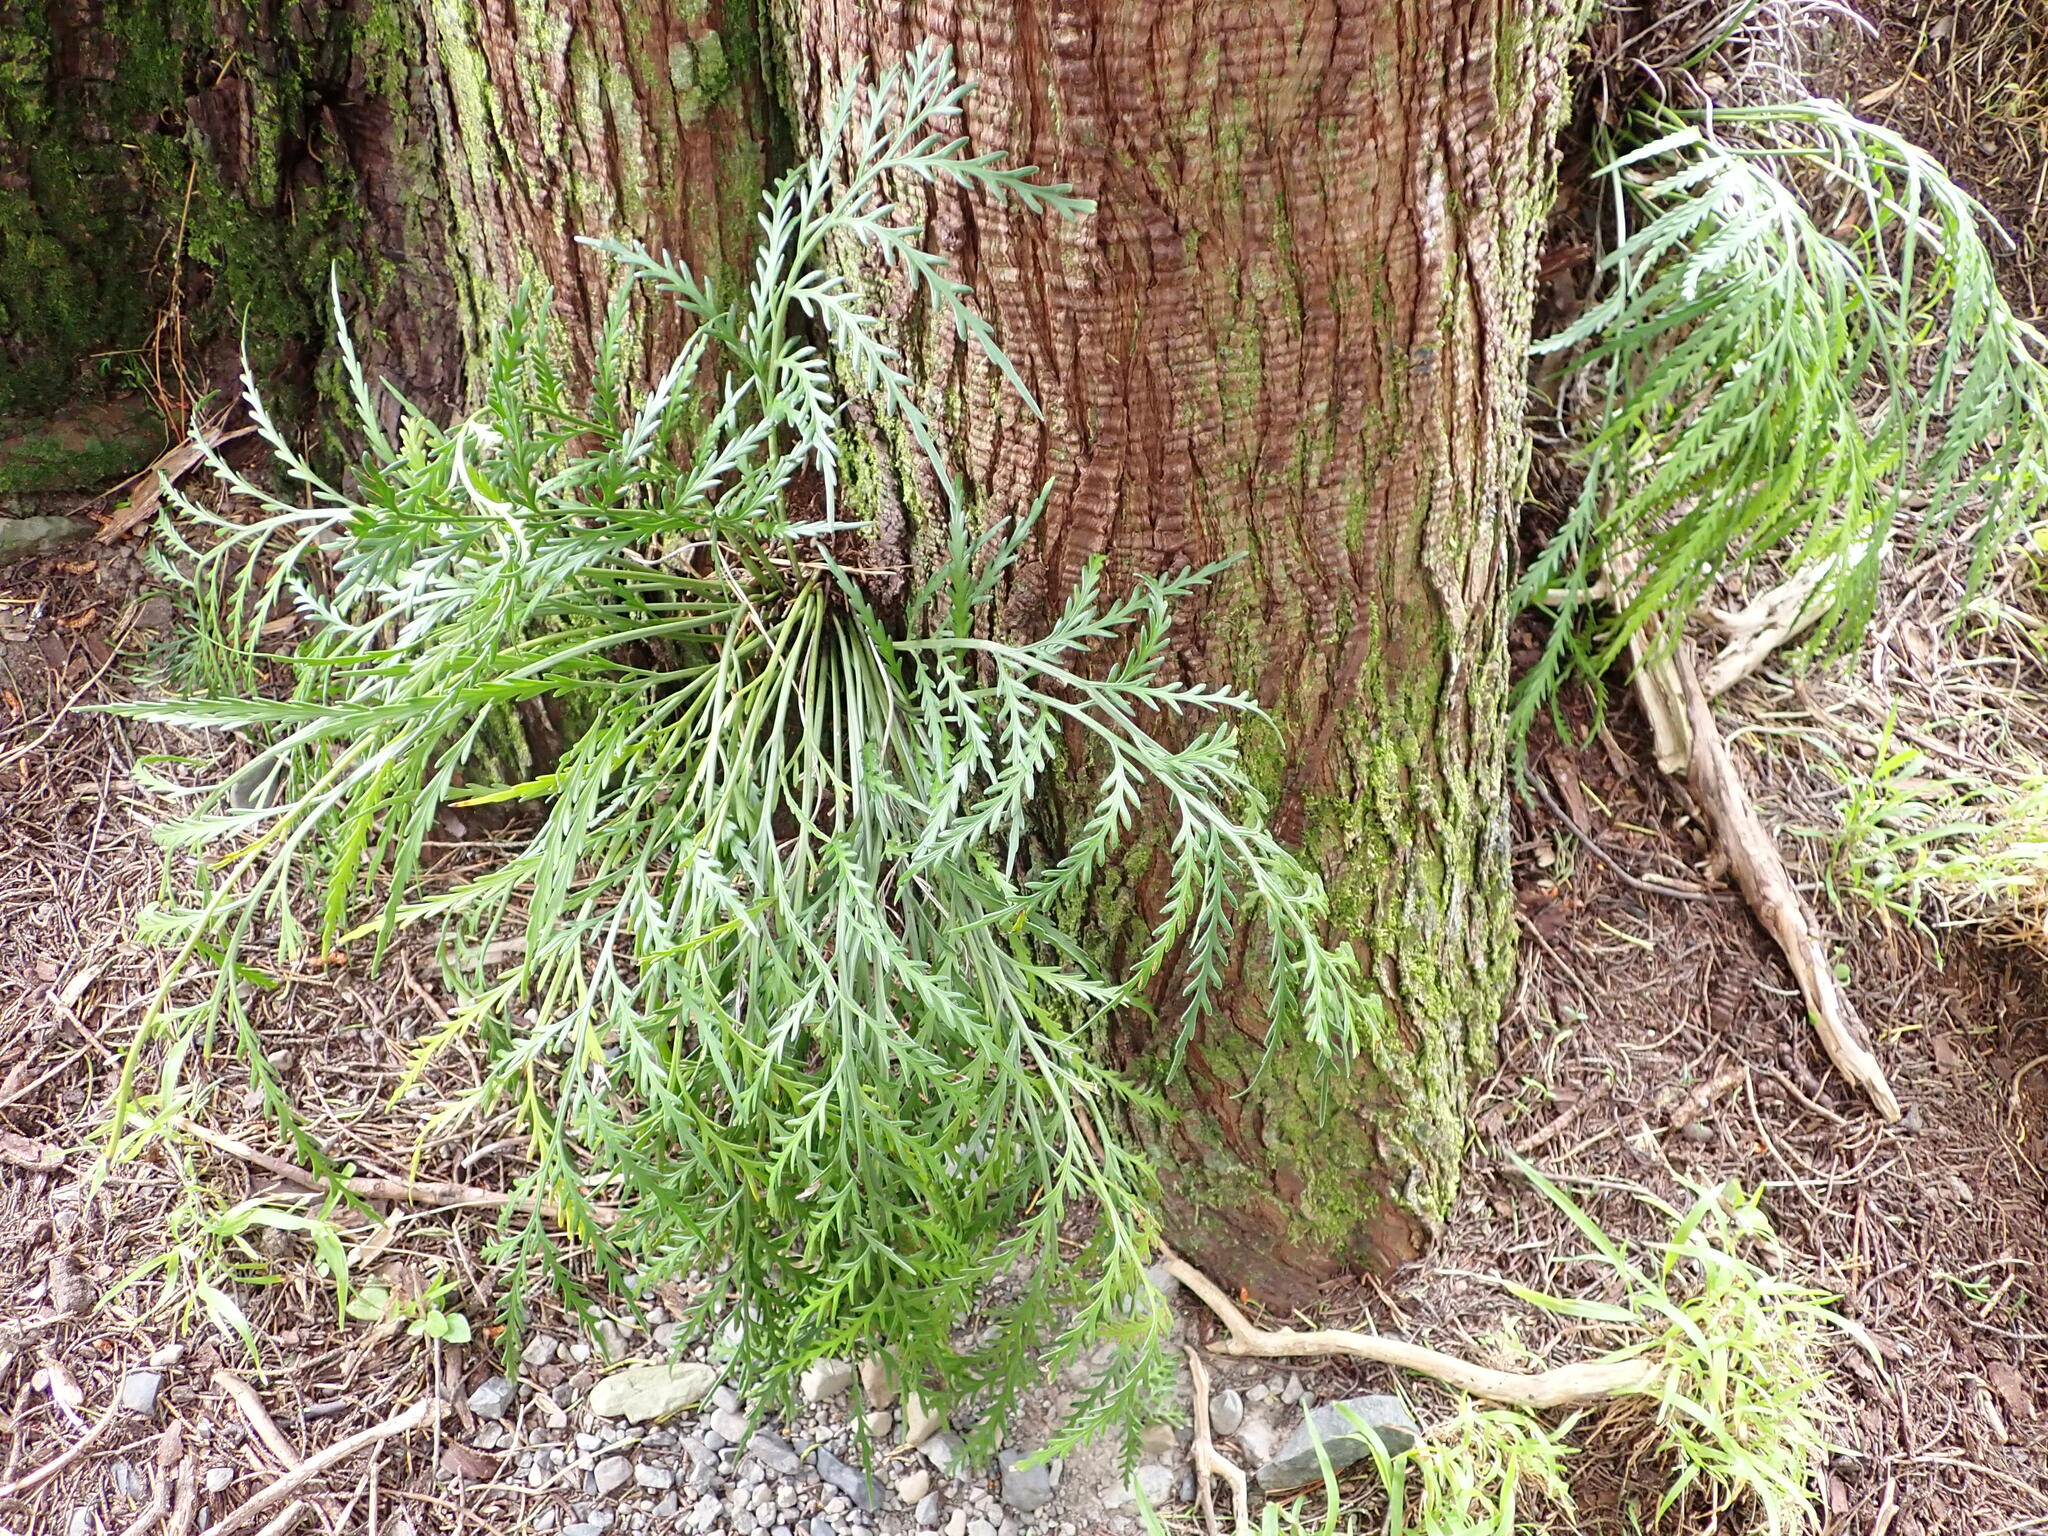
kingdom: Plantae
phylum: Tracheophyta
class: Polypodiopsida
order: Polypodiales
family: Aspleniaceae
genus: Asplenium
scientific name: Asplenium flaccidum
